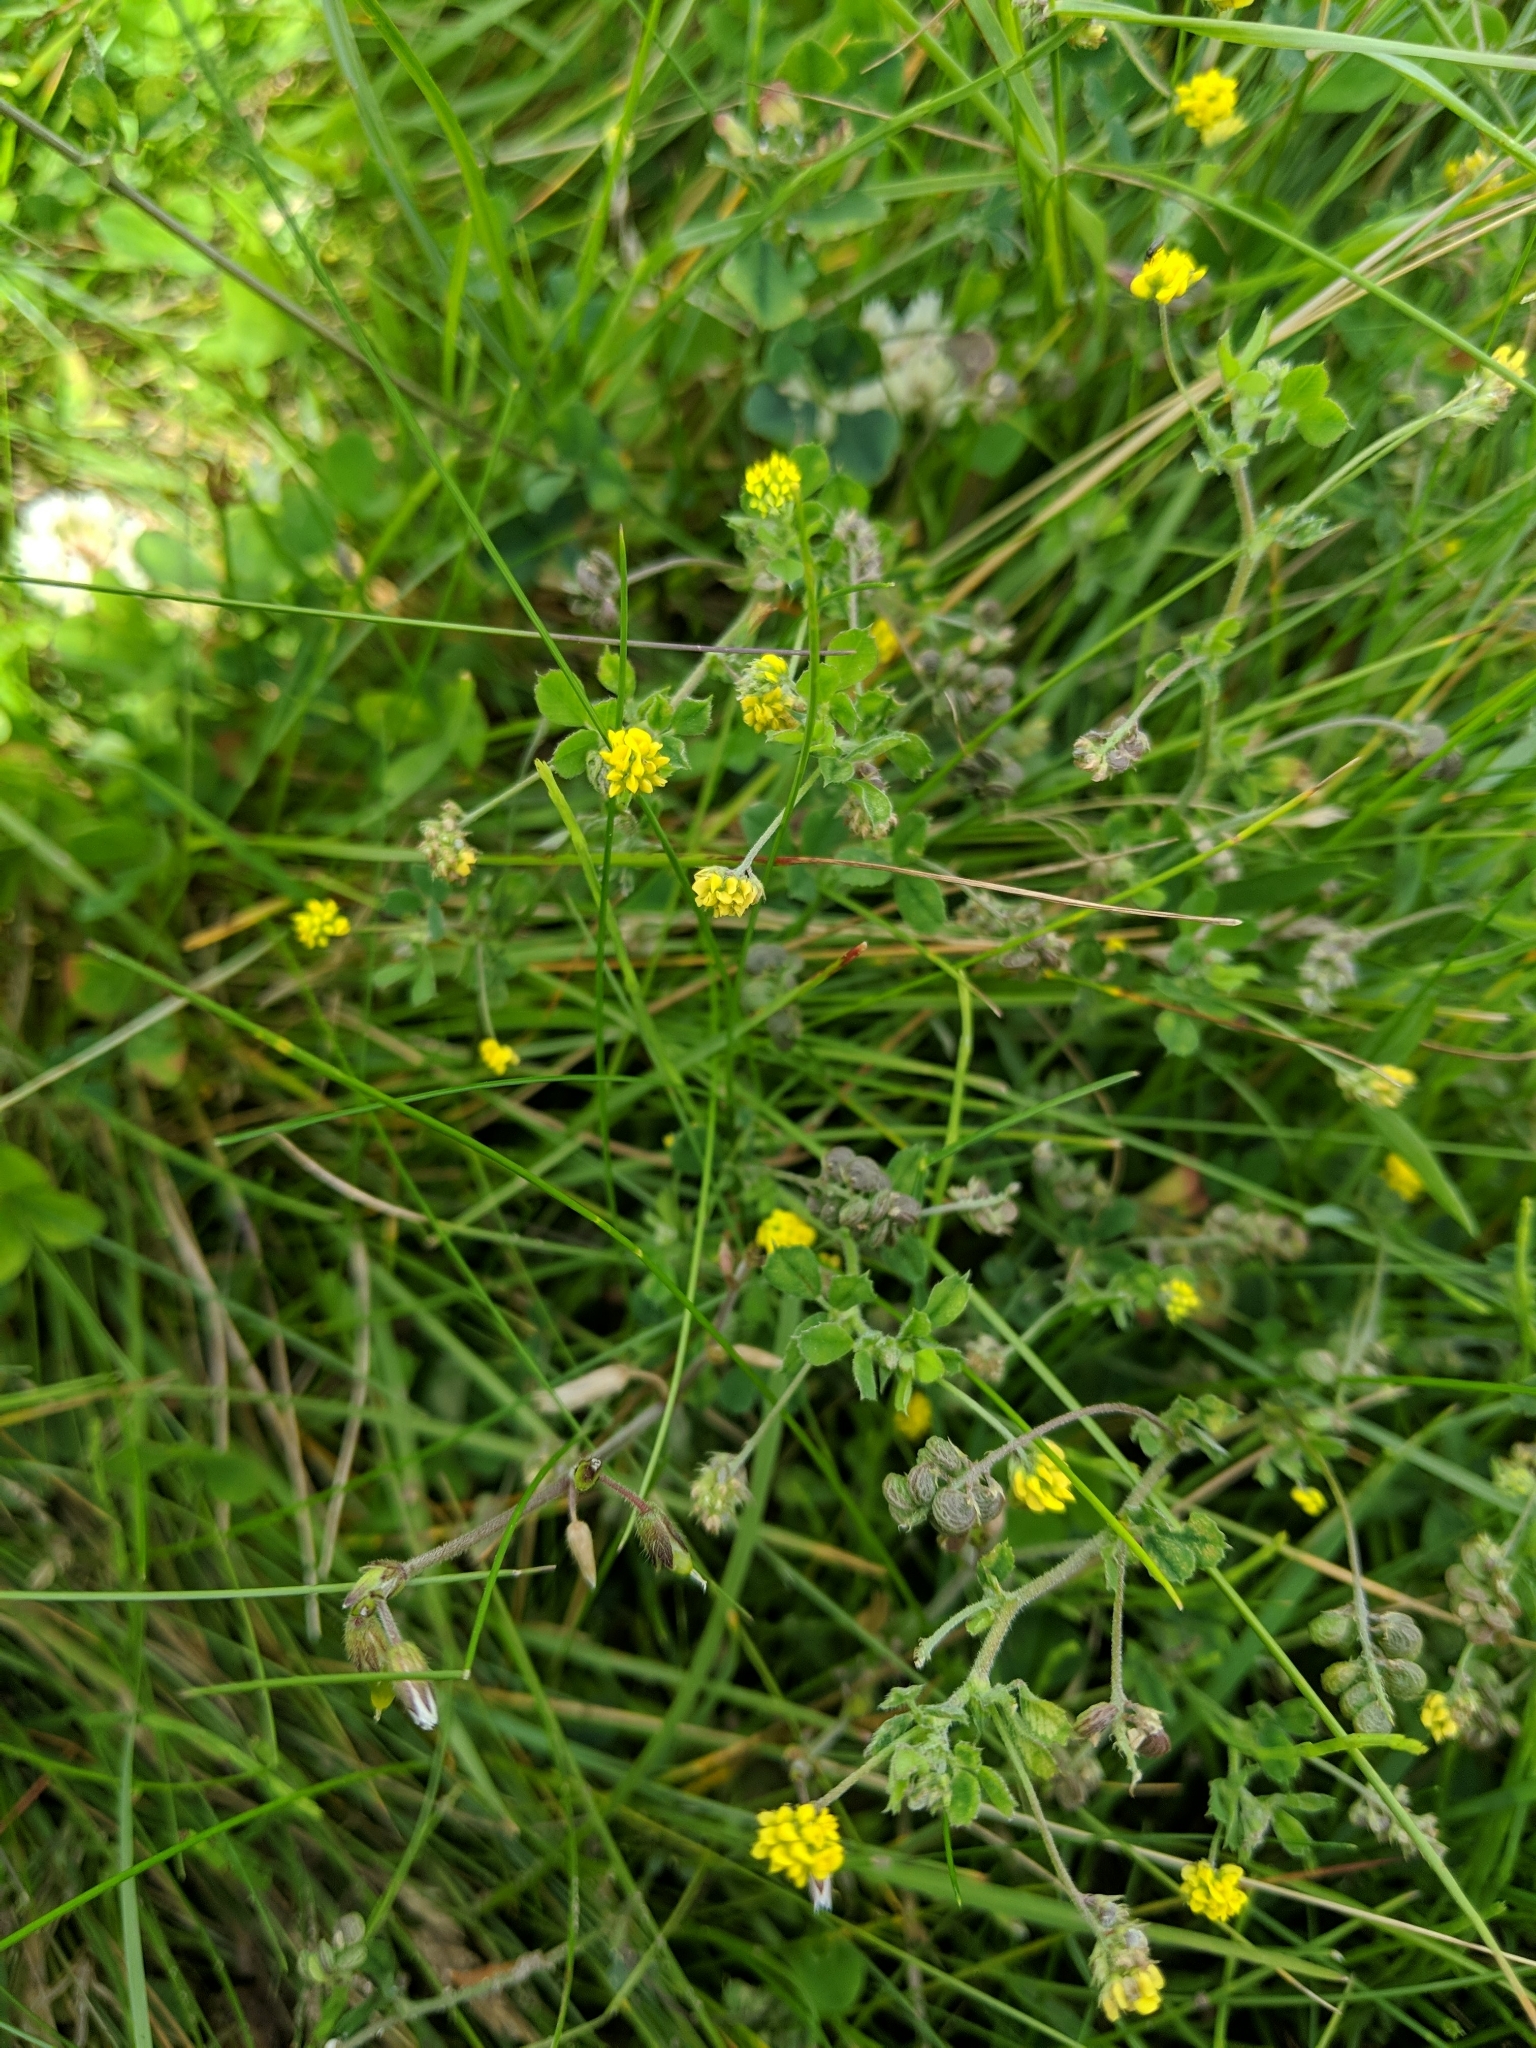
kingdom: Plantae
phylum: Tracheophyta
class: Magnoliopsida
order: Fabales
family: Fabaceae
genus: Medicago
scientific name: Medicago lupulina
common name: Black medick
